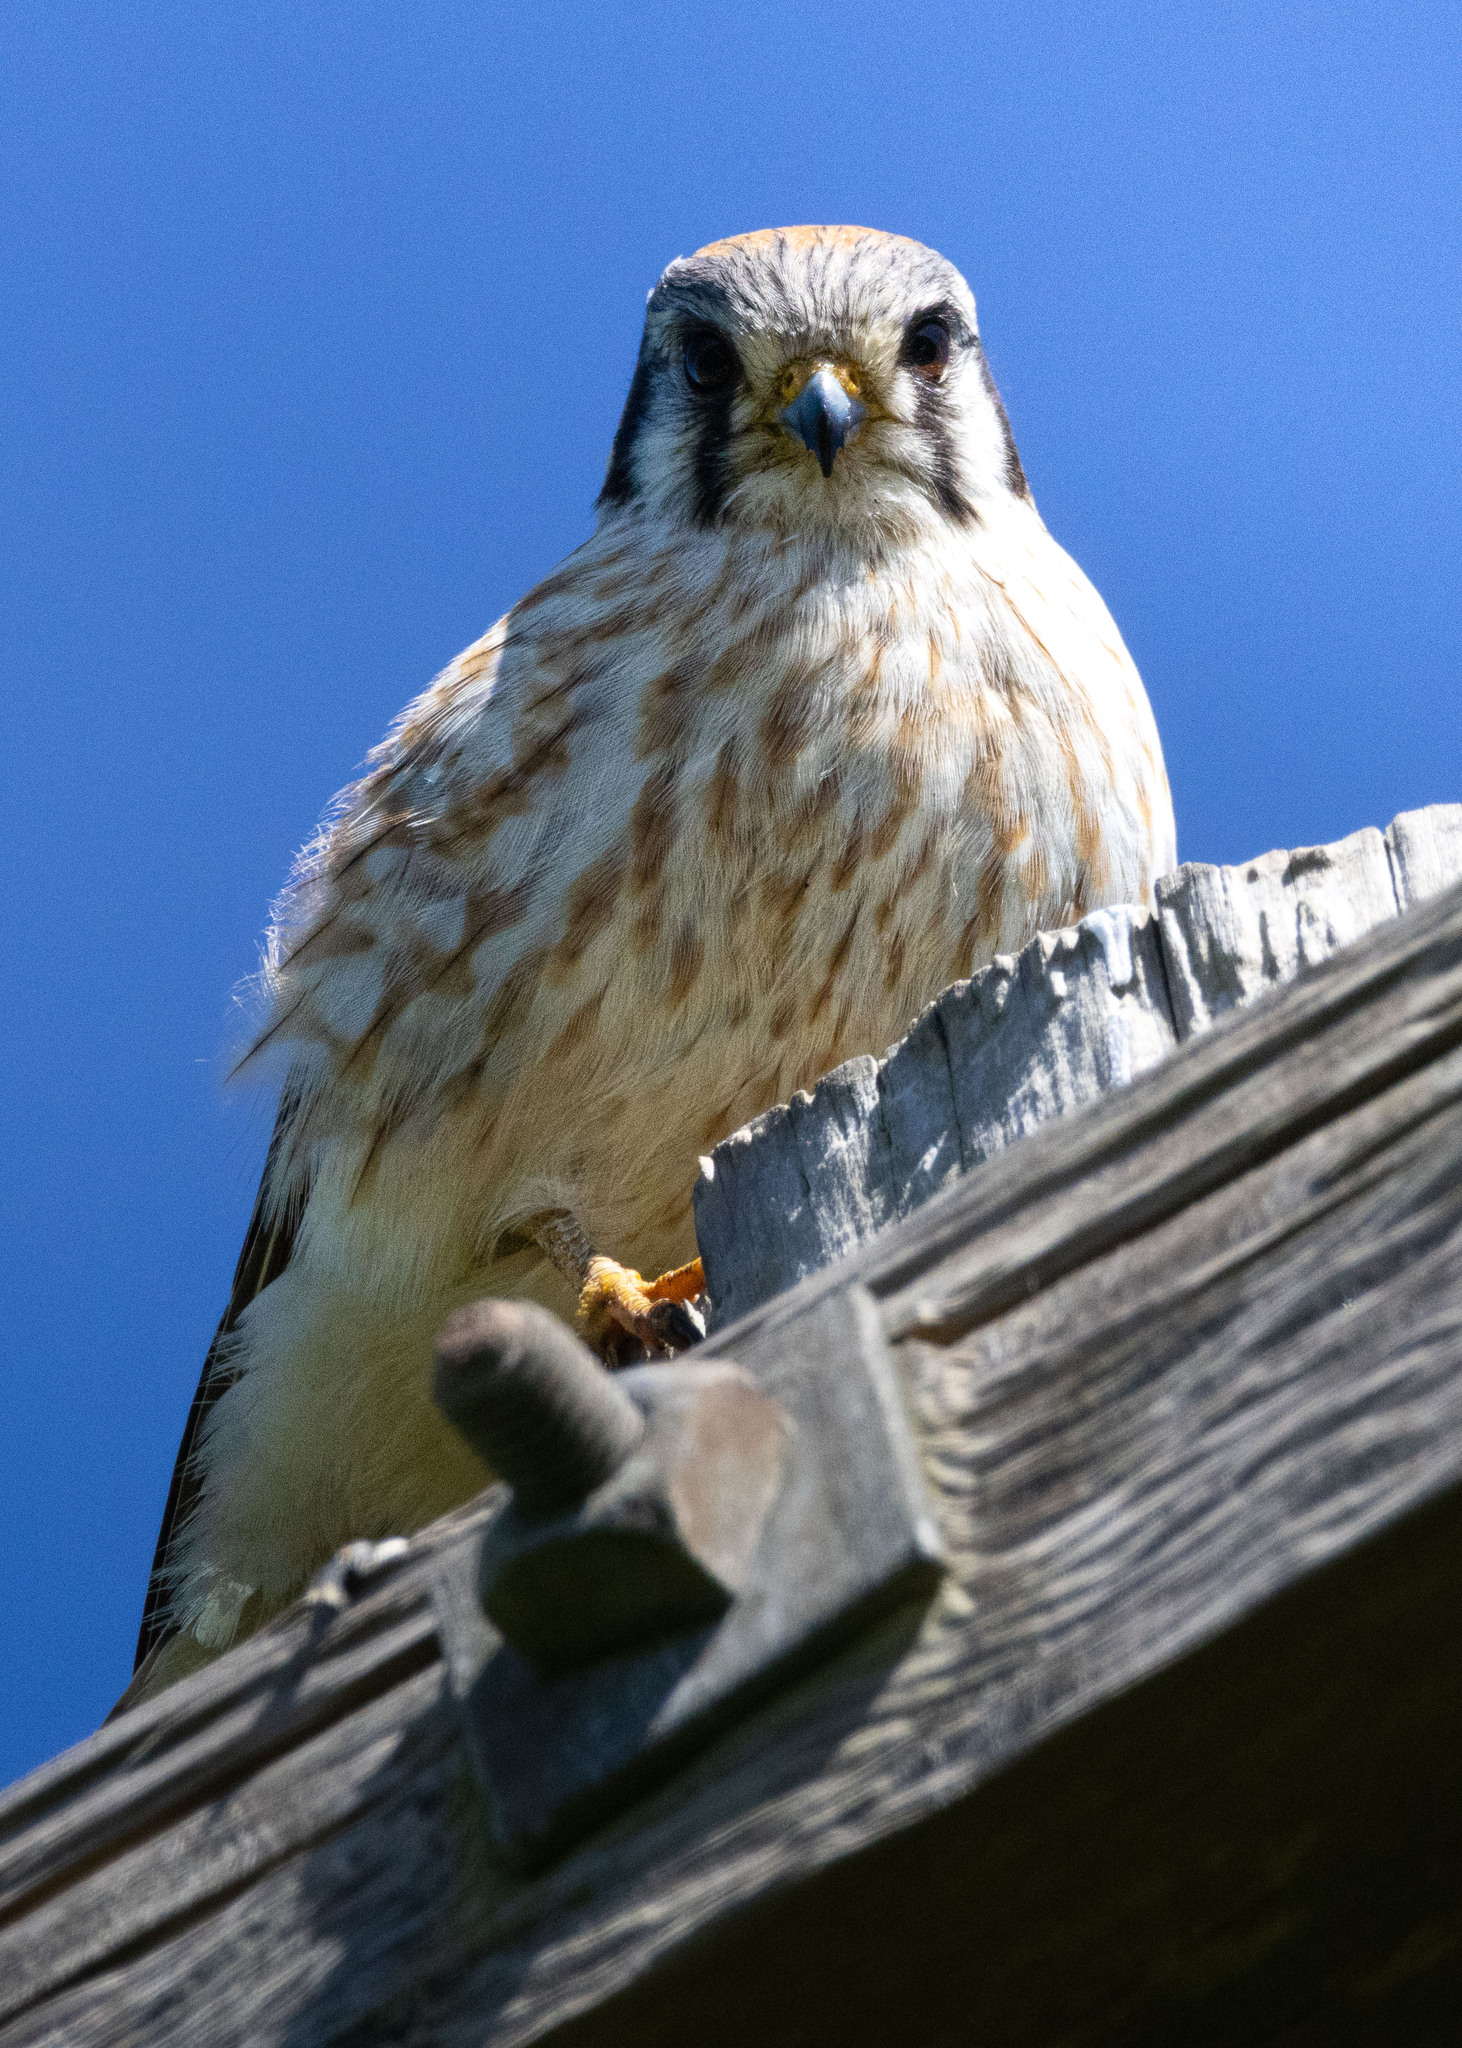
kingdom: Animalia
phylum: Chordata
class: Aves
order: Falconiformes
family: Falconidae
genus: Falco
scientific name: Falco sparverius
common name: American kestrel
